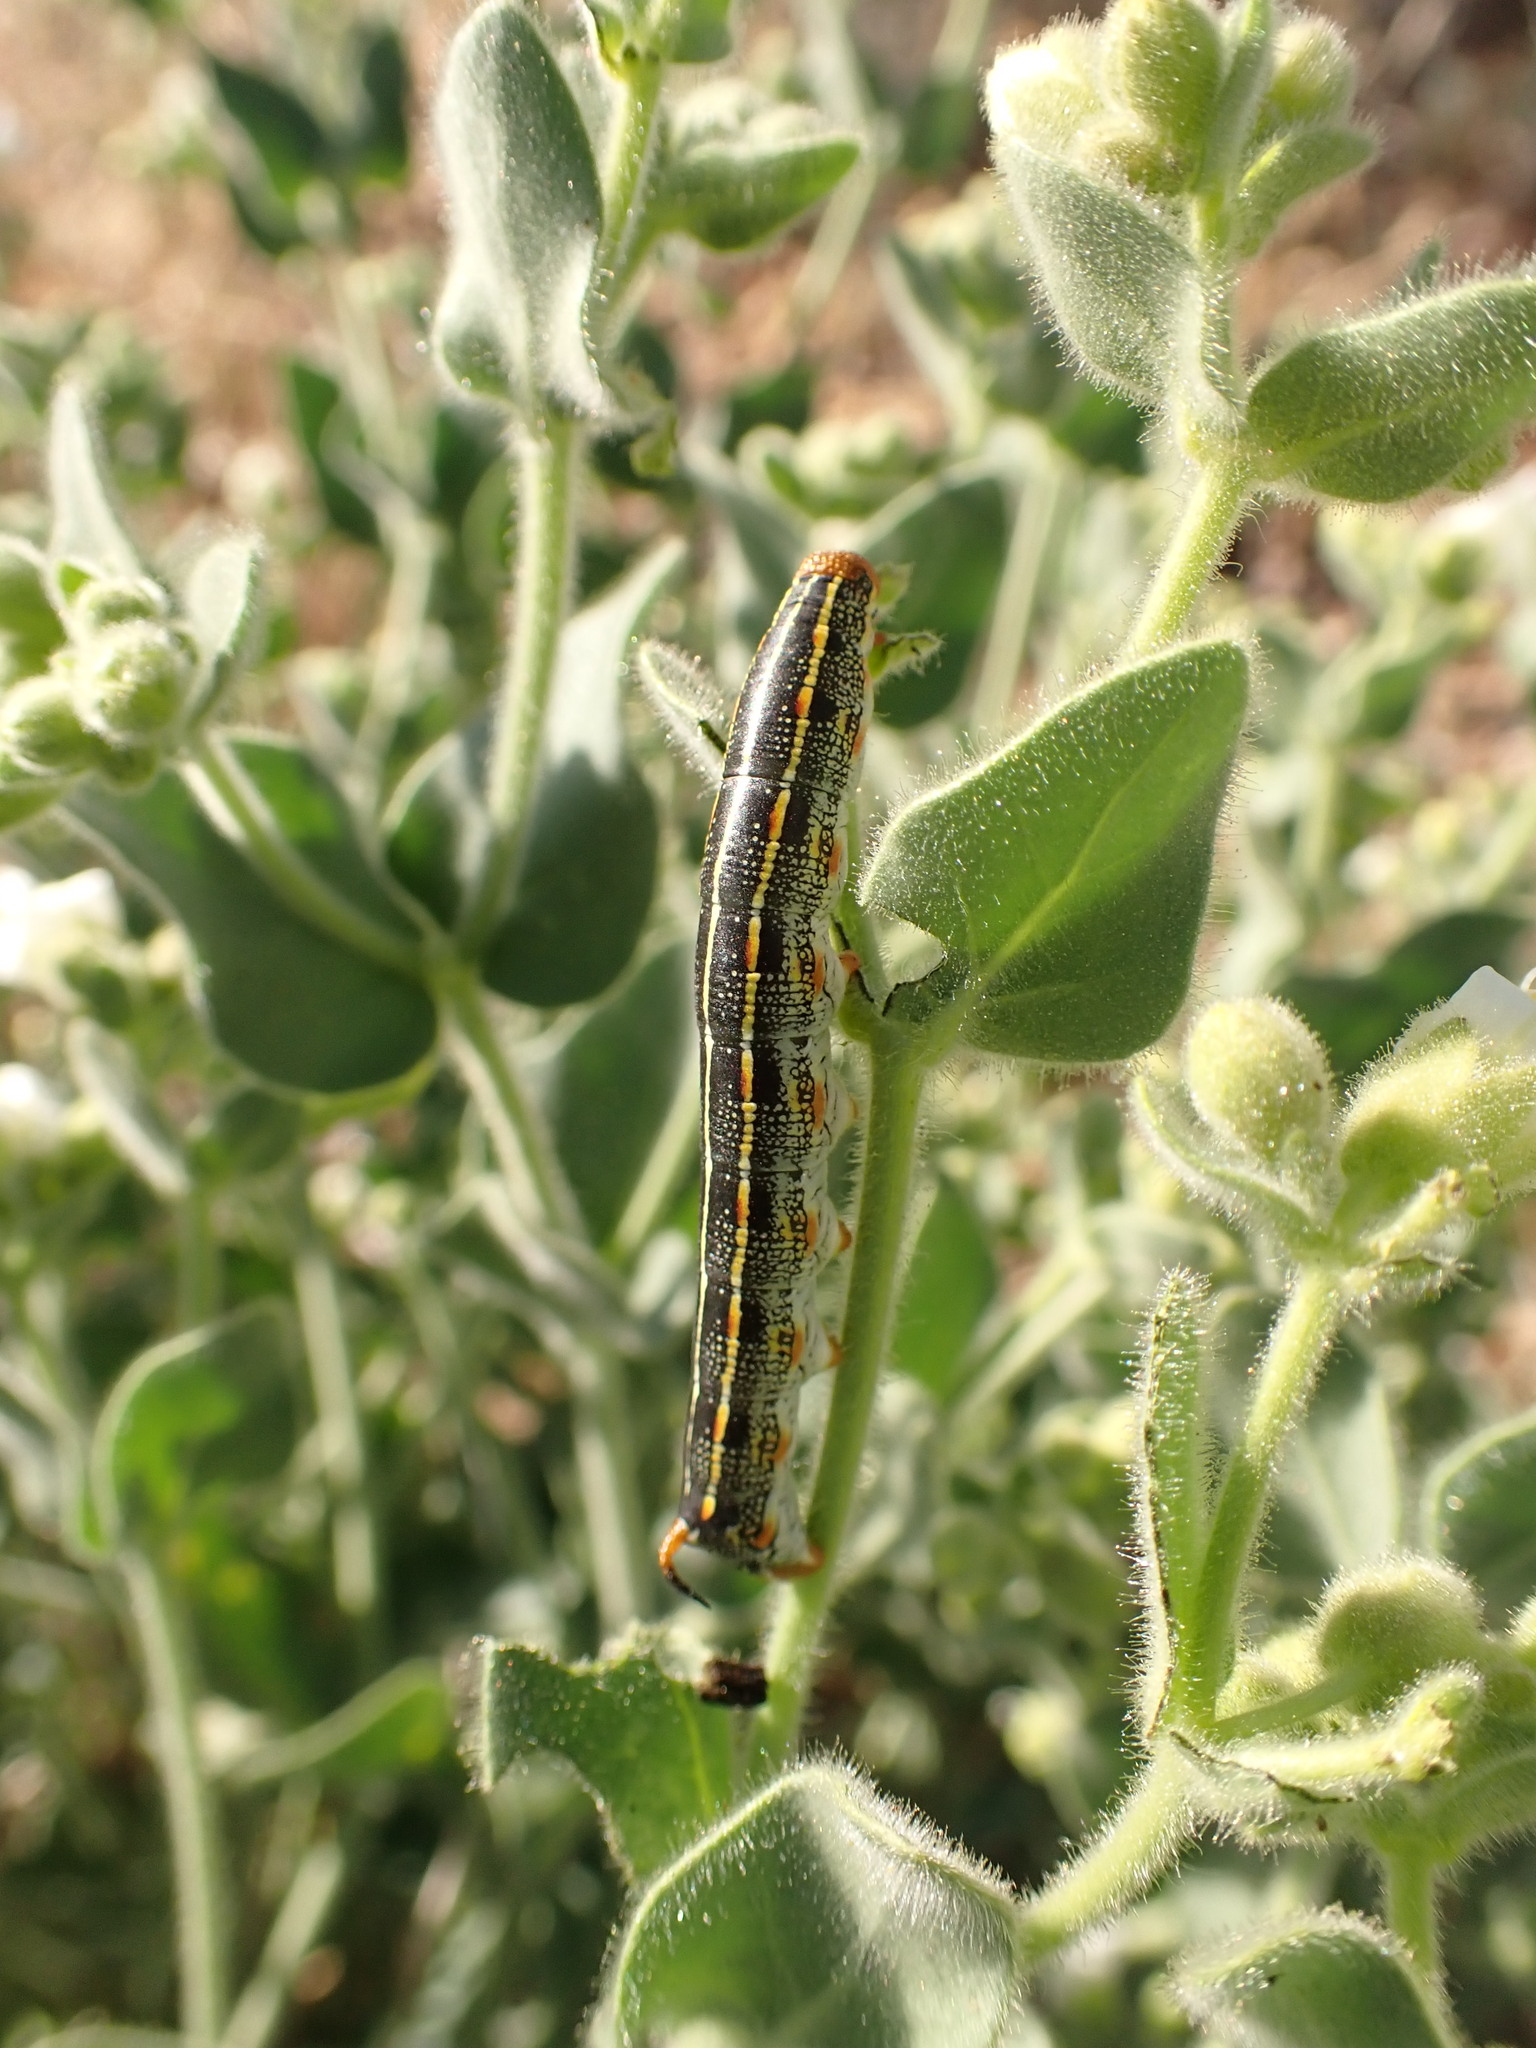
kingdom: Animalia
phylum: Arthropoda
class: Insecta
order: Lepidoptera
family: Sphingidae
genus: Hyles
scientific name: Hyles lineata
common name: White-lined sphinx
